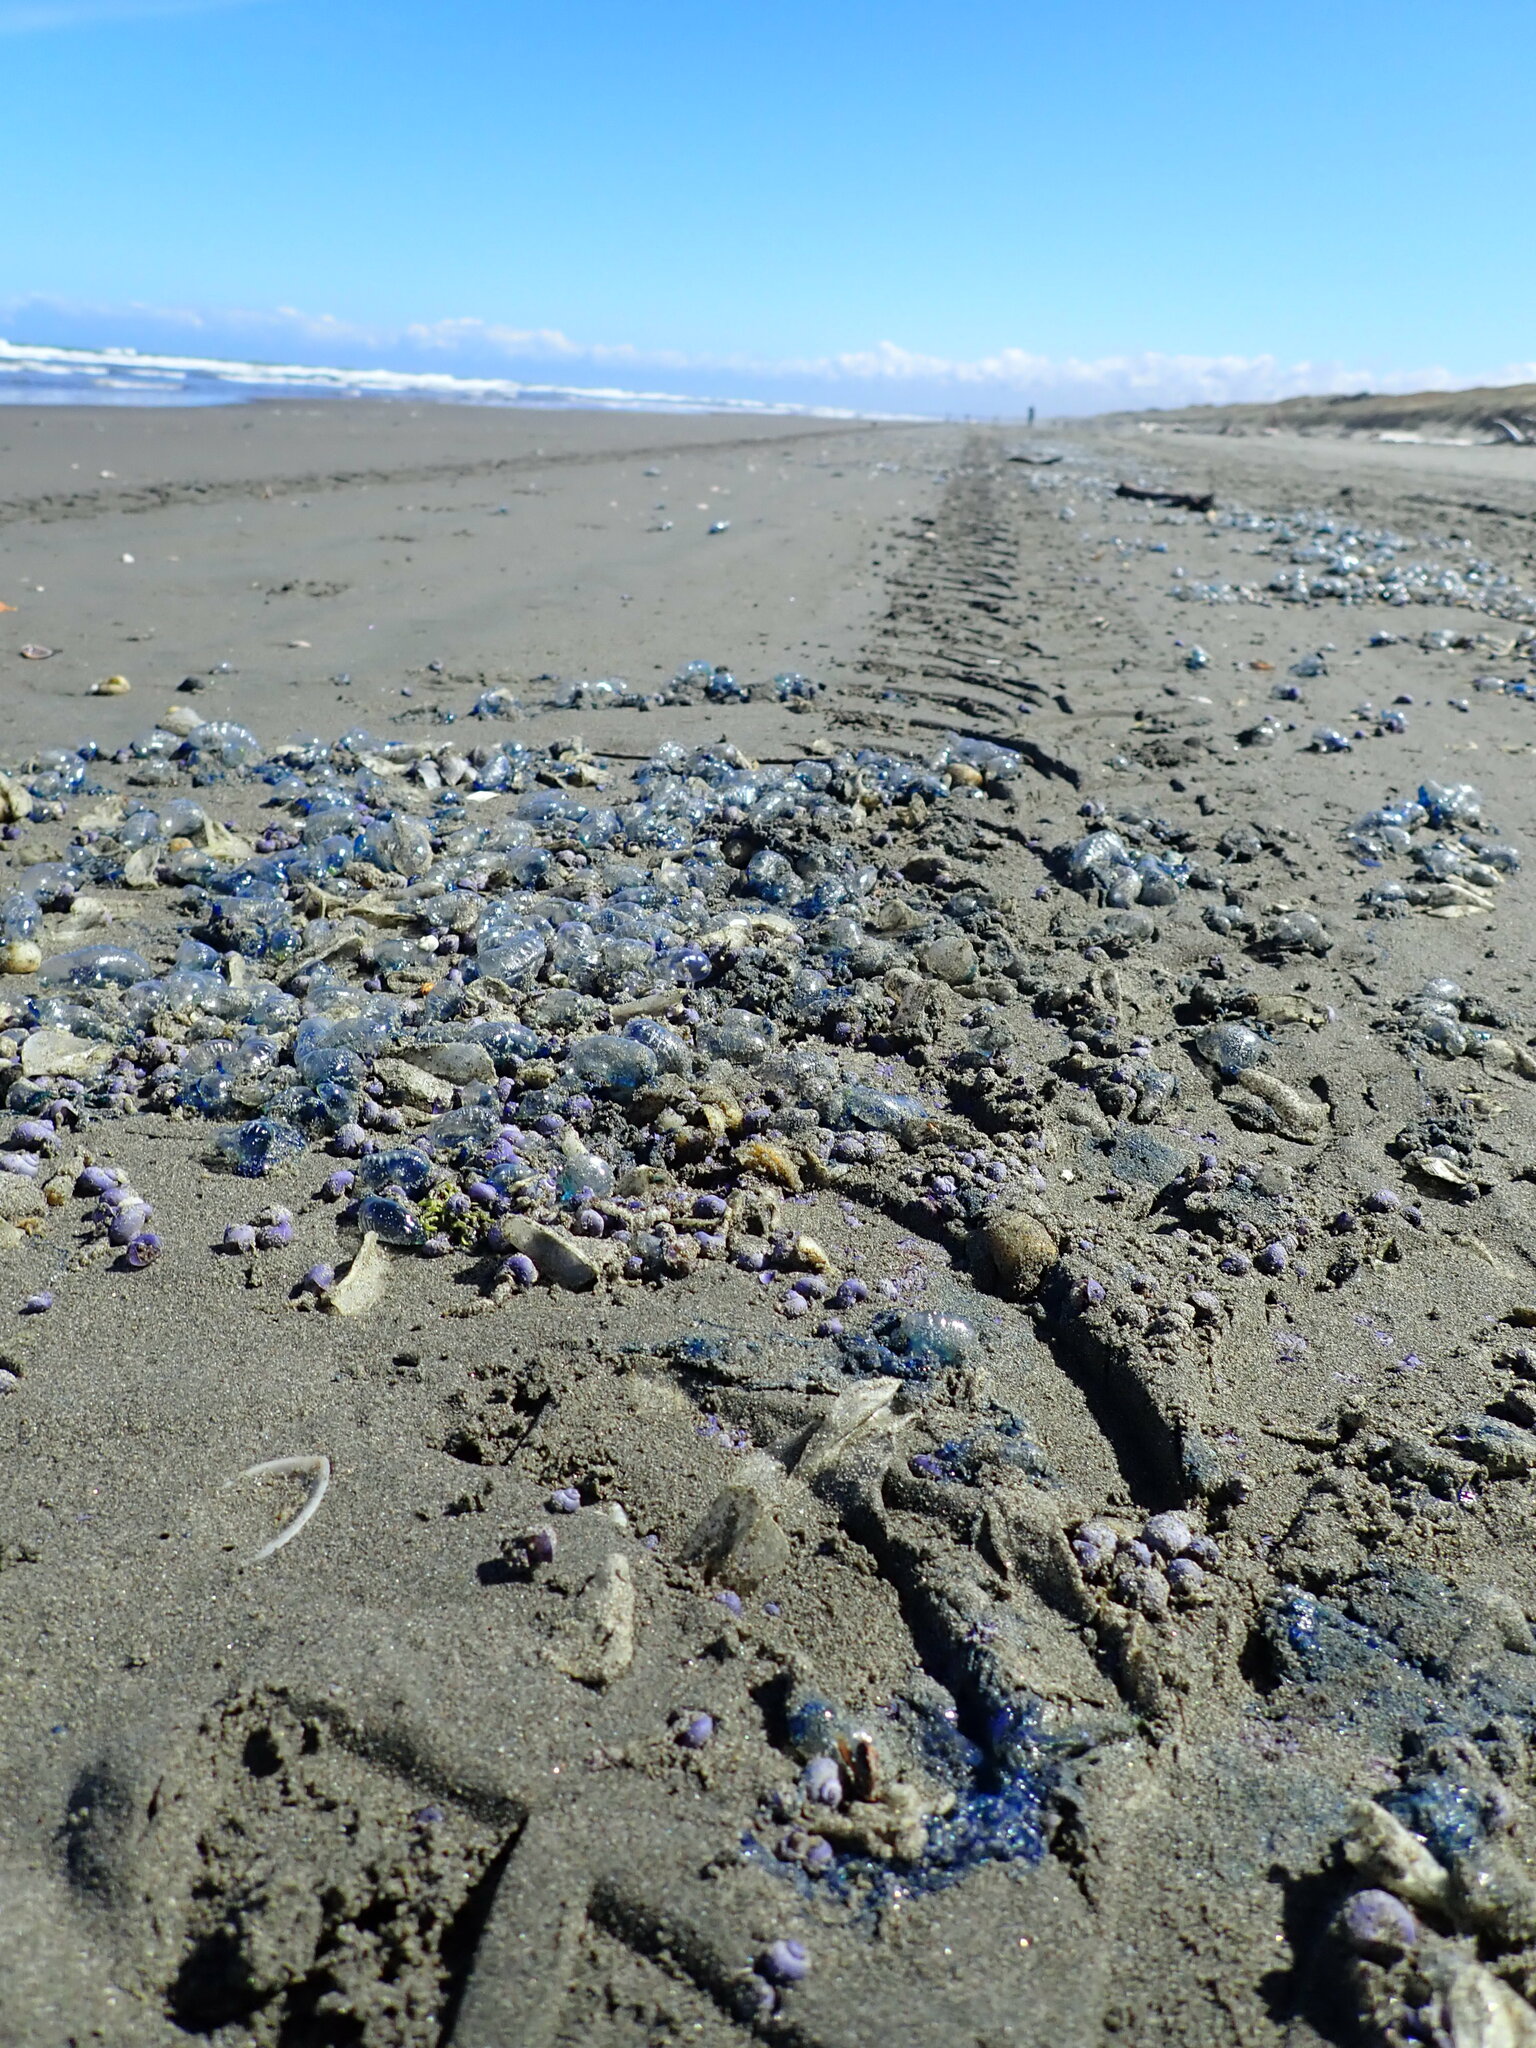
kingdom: Animalia
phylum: Mollusca
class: Gastropoda
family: Epitoniidae
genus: Janthina
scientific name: Janthina exigua
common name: Dwarf janthina
